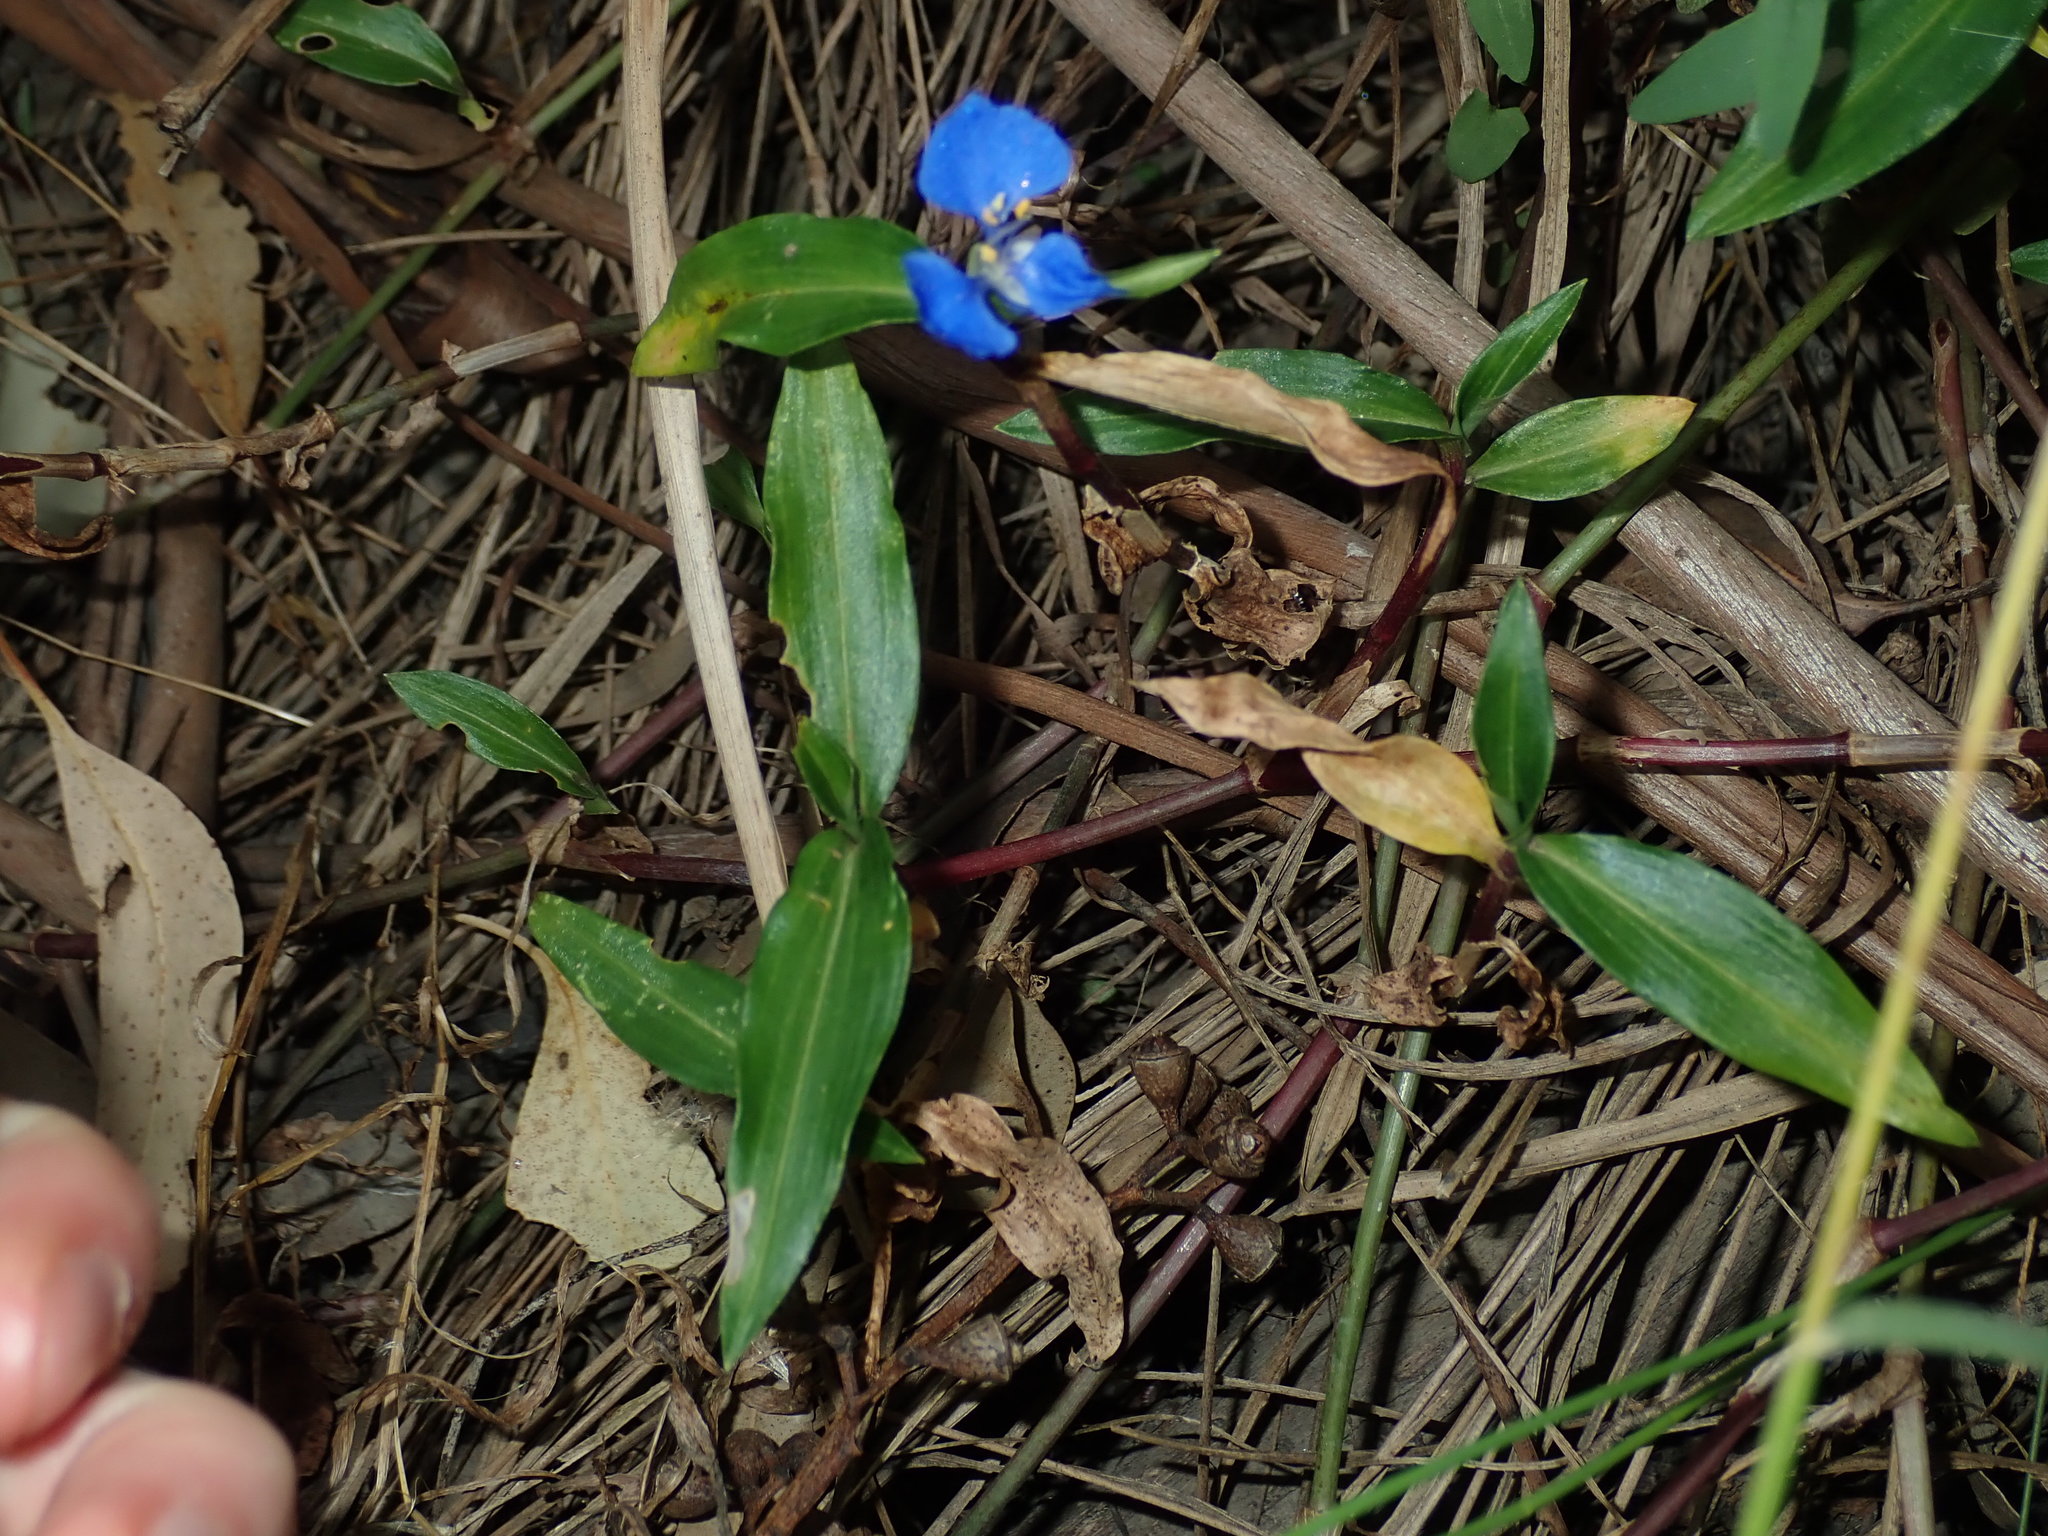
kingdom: Plantae
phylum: Tracheophyta
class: Liliopsida
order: Commelinales
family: Commelinaceae
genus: Commelina
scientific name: Commelina cyanea
